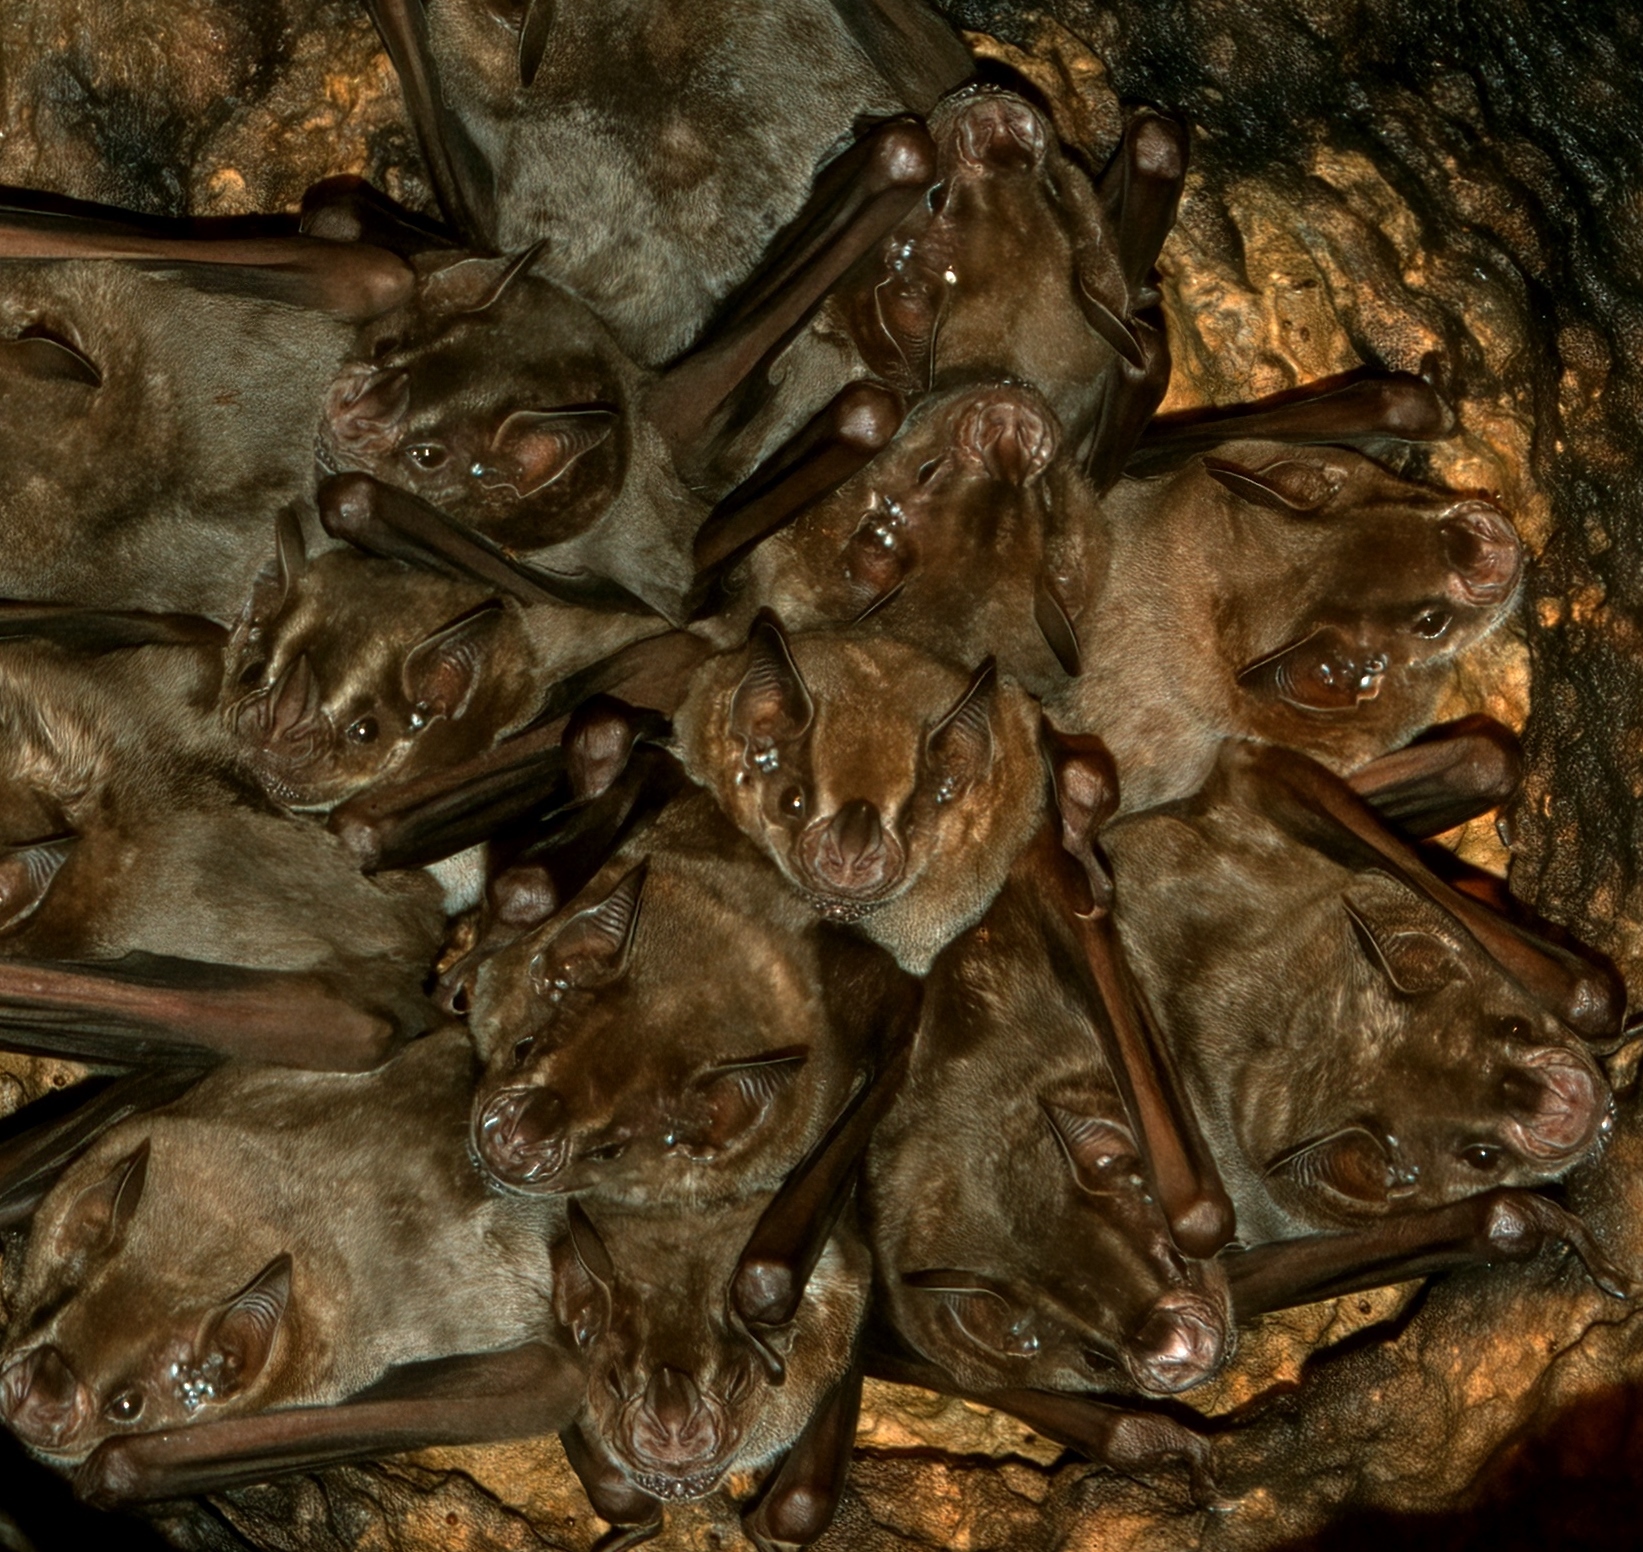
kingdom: Animalia
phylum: Chordata
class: Mammalia
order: Chiroptera
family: Phyllostomidae
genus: Artibeus
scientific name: Artibeus jamaicensis
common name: Jamaican fruit-eating bat
